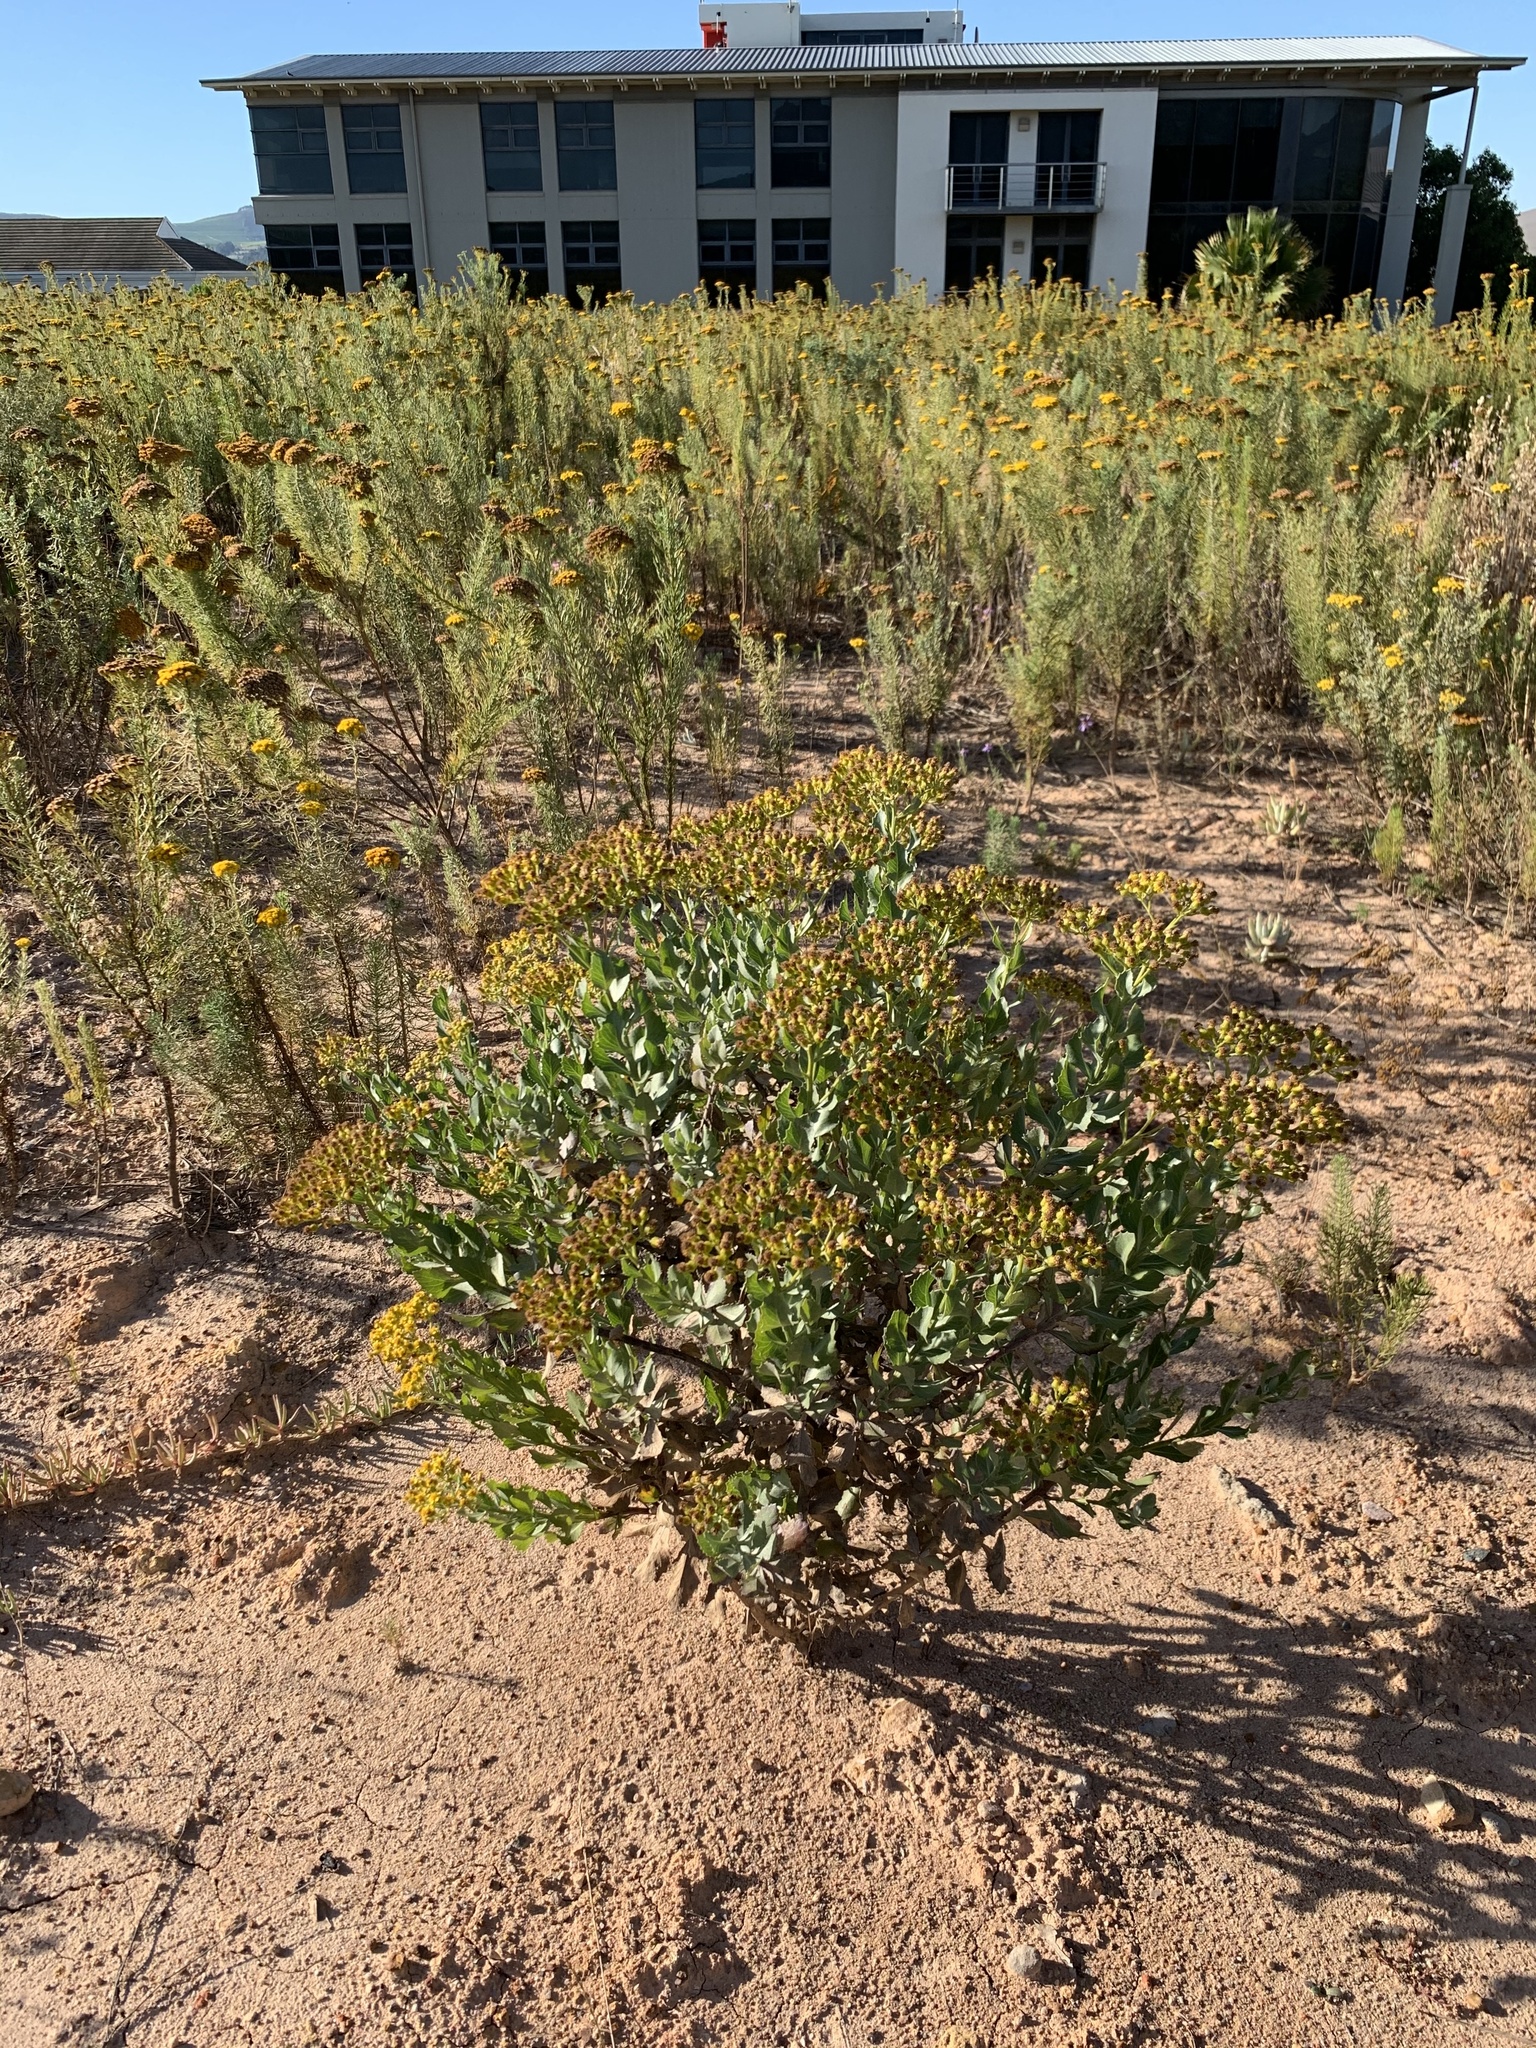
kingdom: Plantae
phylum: Tracheophyta
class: Magnoliopsida
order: Asterales
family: Asteraceae
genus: Senecio
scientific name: Senecio halimifolius
